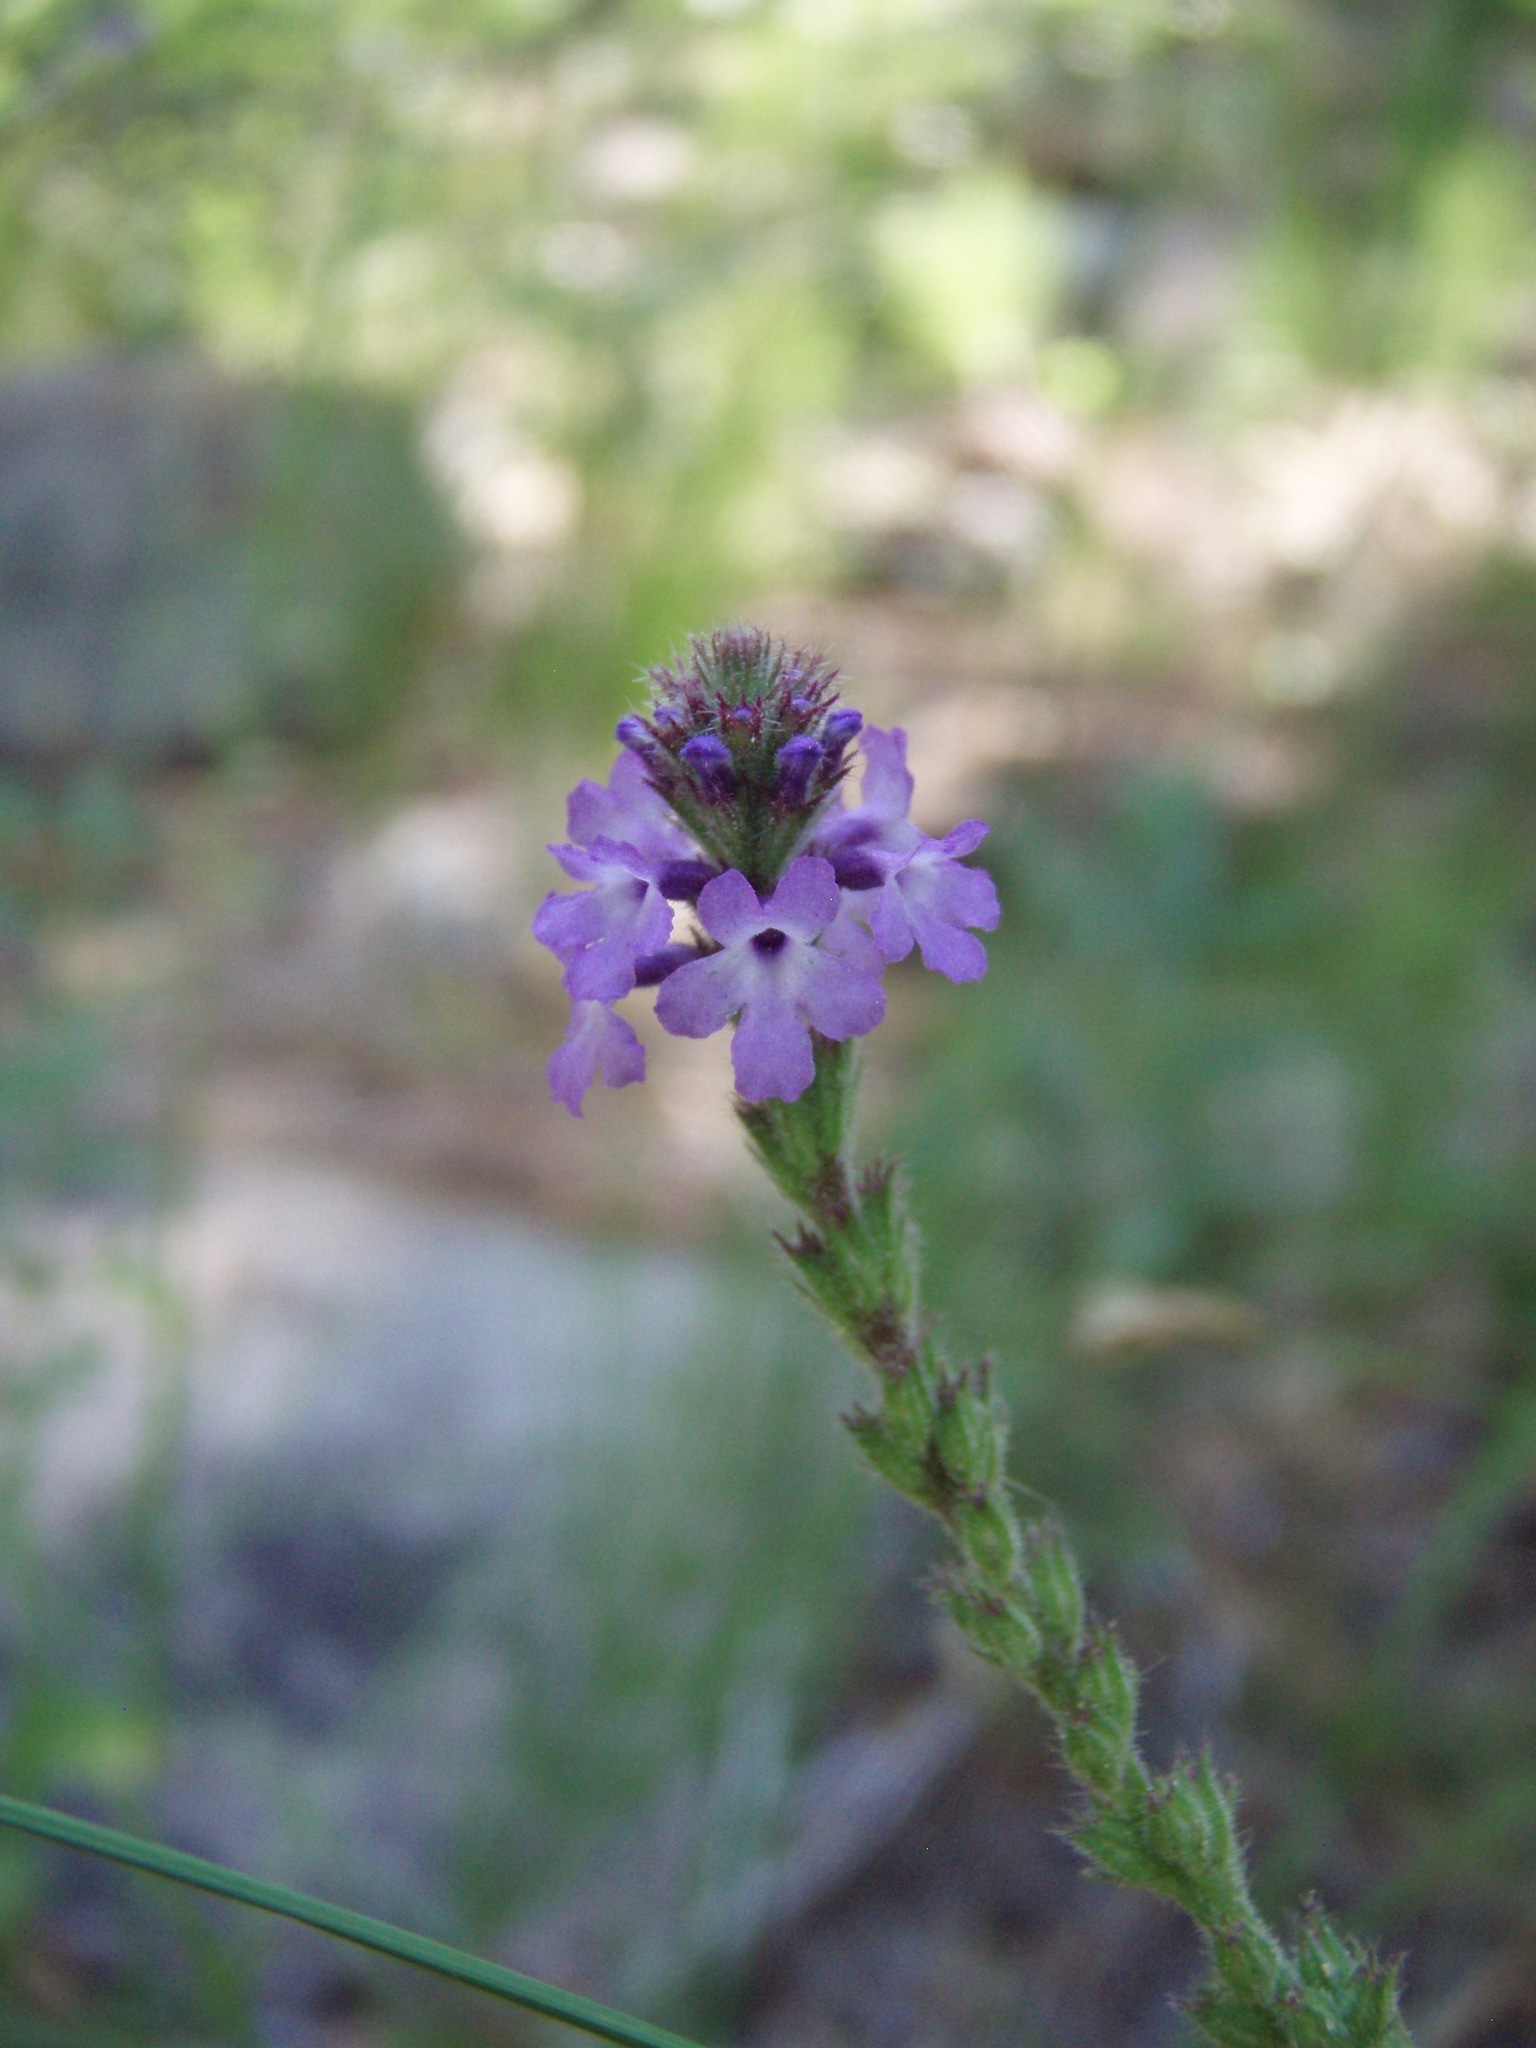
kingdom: Plantae
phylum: Tracheophyta
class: Magnoliopsida
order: Lamiales
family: Verbenaceae
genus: Verbena
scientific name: Verbena lasiostachys
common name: Vervain
